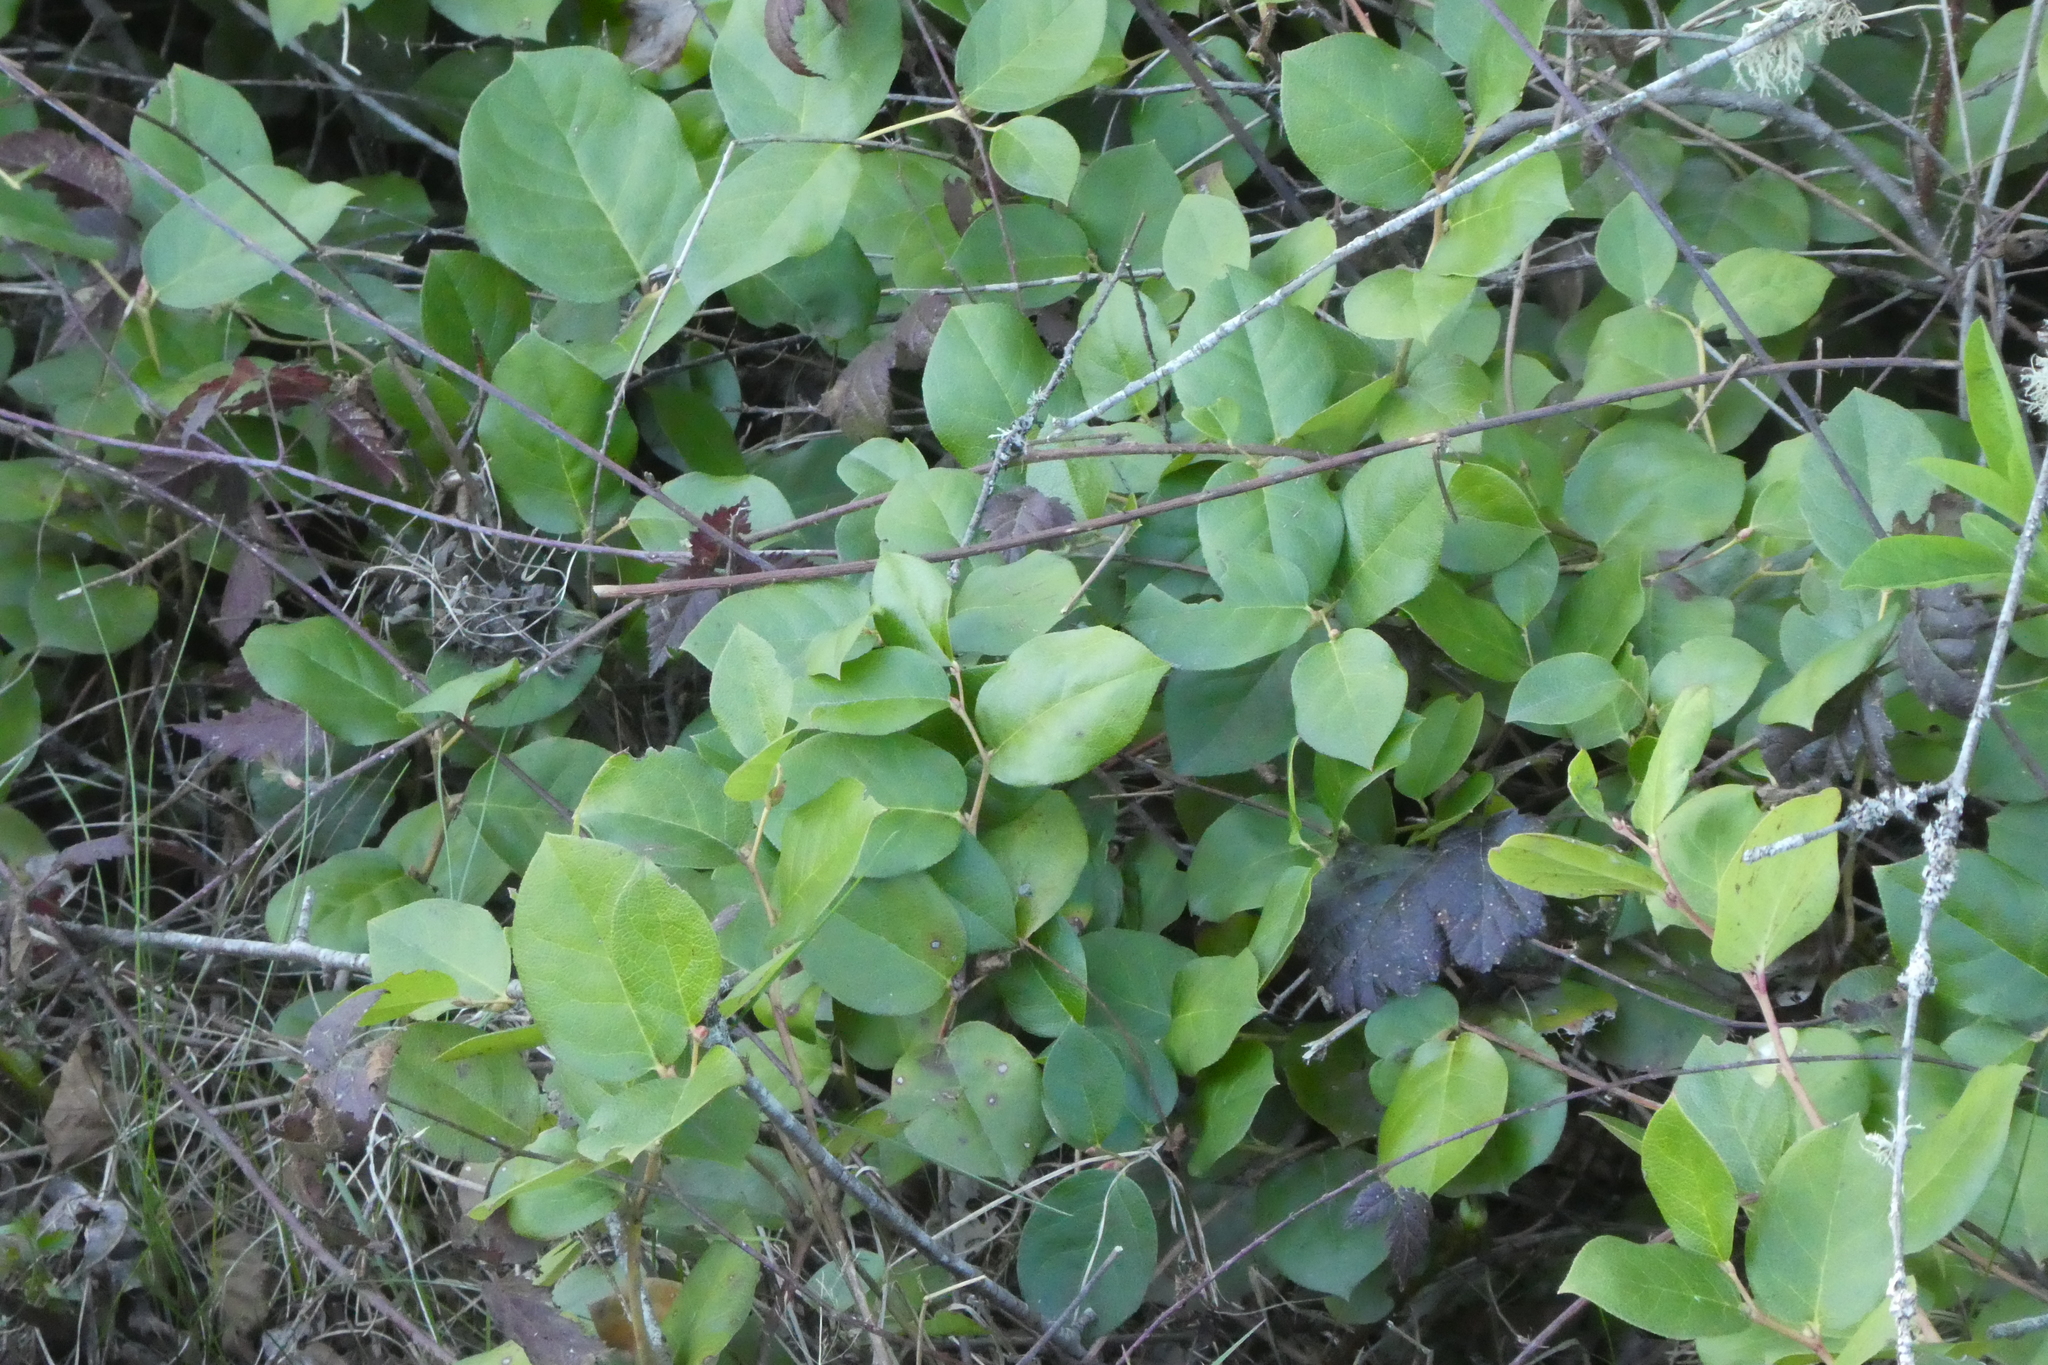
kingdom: Plantae
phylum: Tracheophyta
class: Magnoliopsida
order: Ericales
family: Ericaceae
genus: Gaultheria
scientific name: Gaultheria shallon
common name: Shallon
